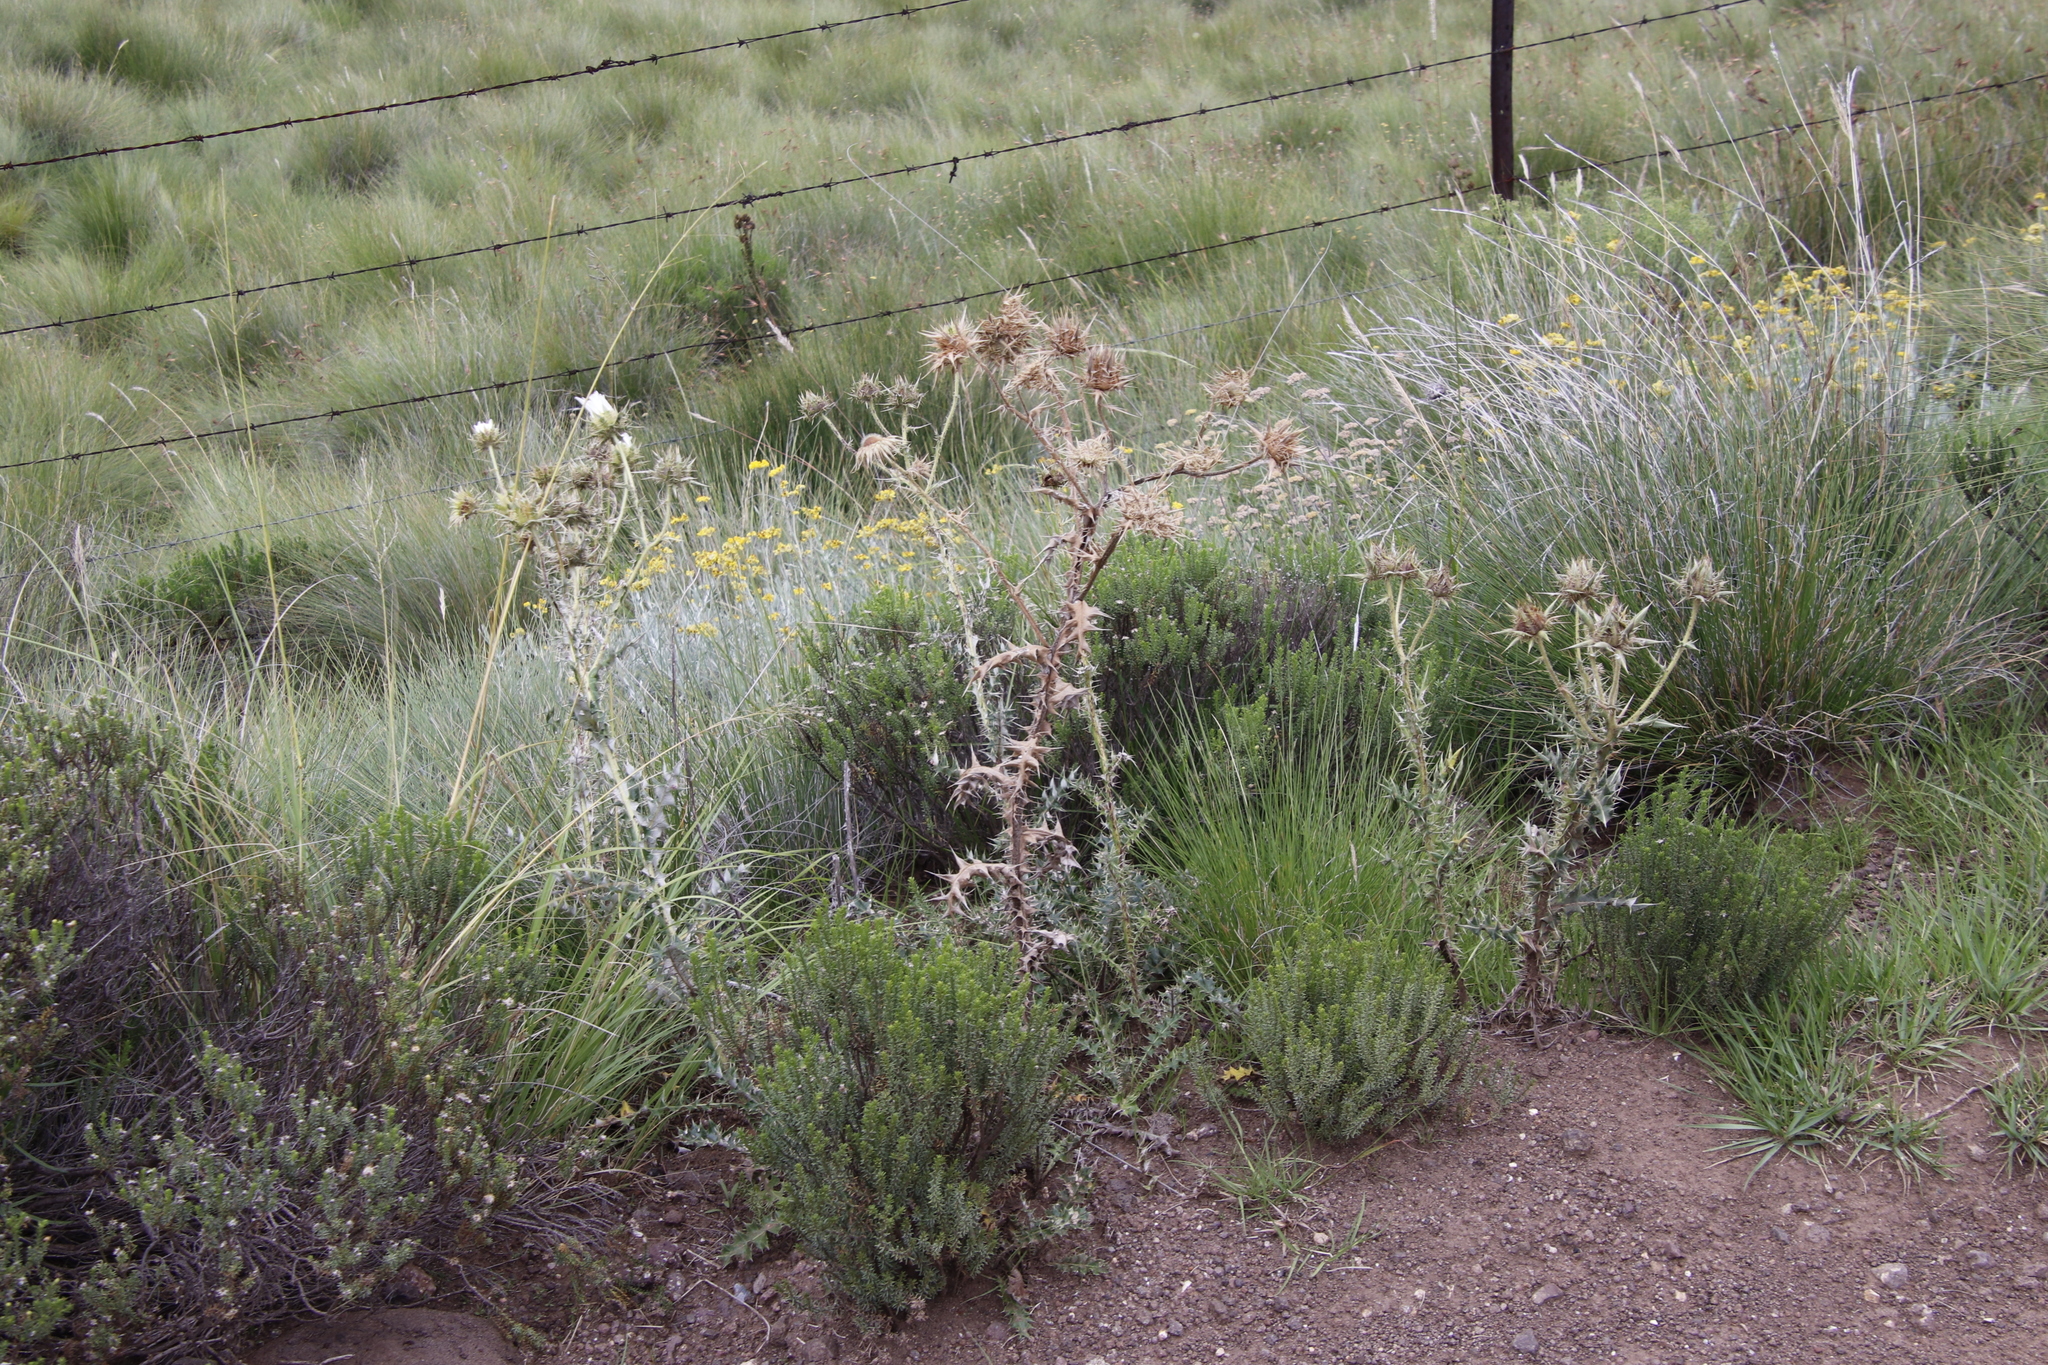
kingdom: Plantae
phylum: Tracheophyta
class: Magnoliopsida
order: Asterales
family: Asteraceae
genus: Berkheya
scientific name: Berkheya cirsiifolia
